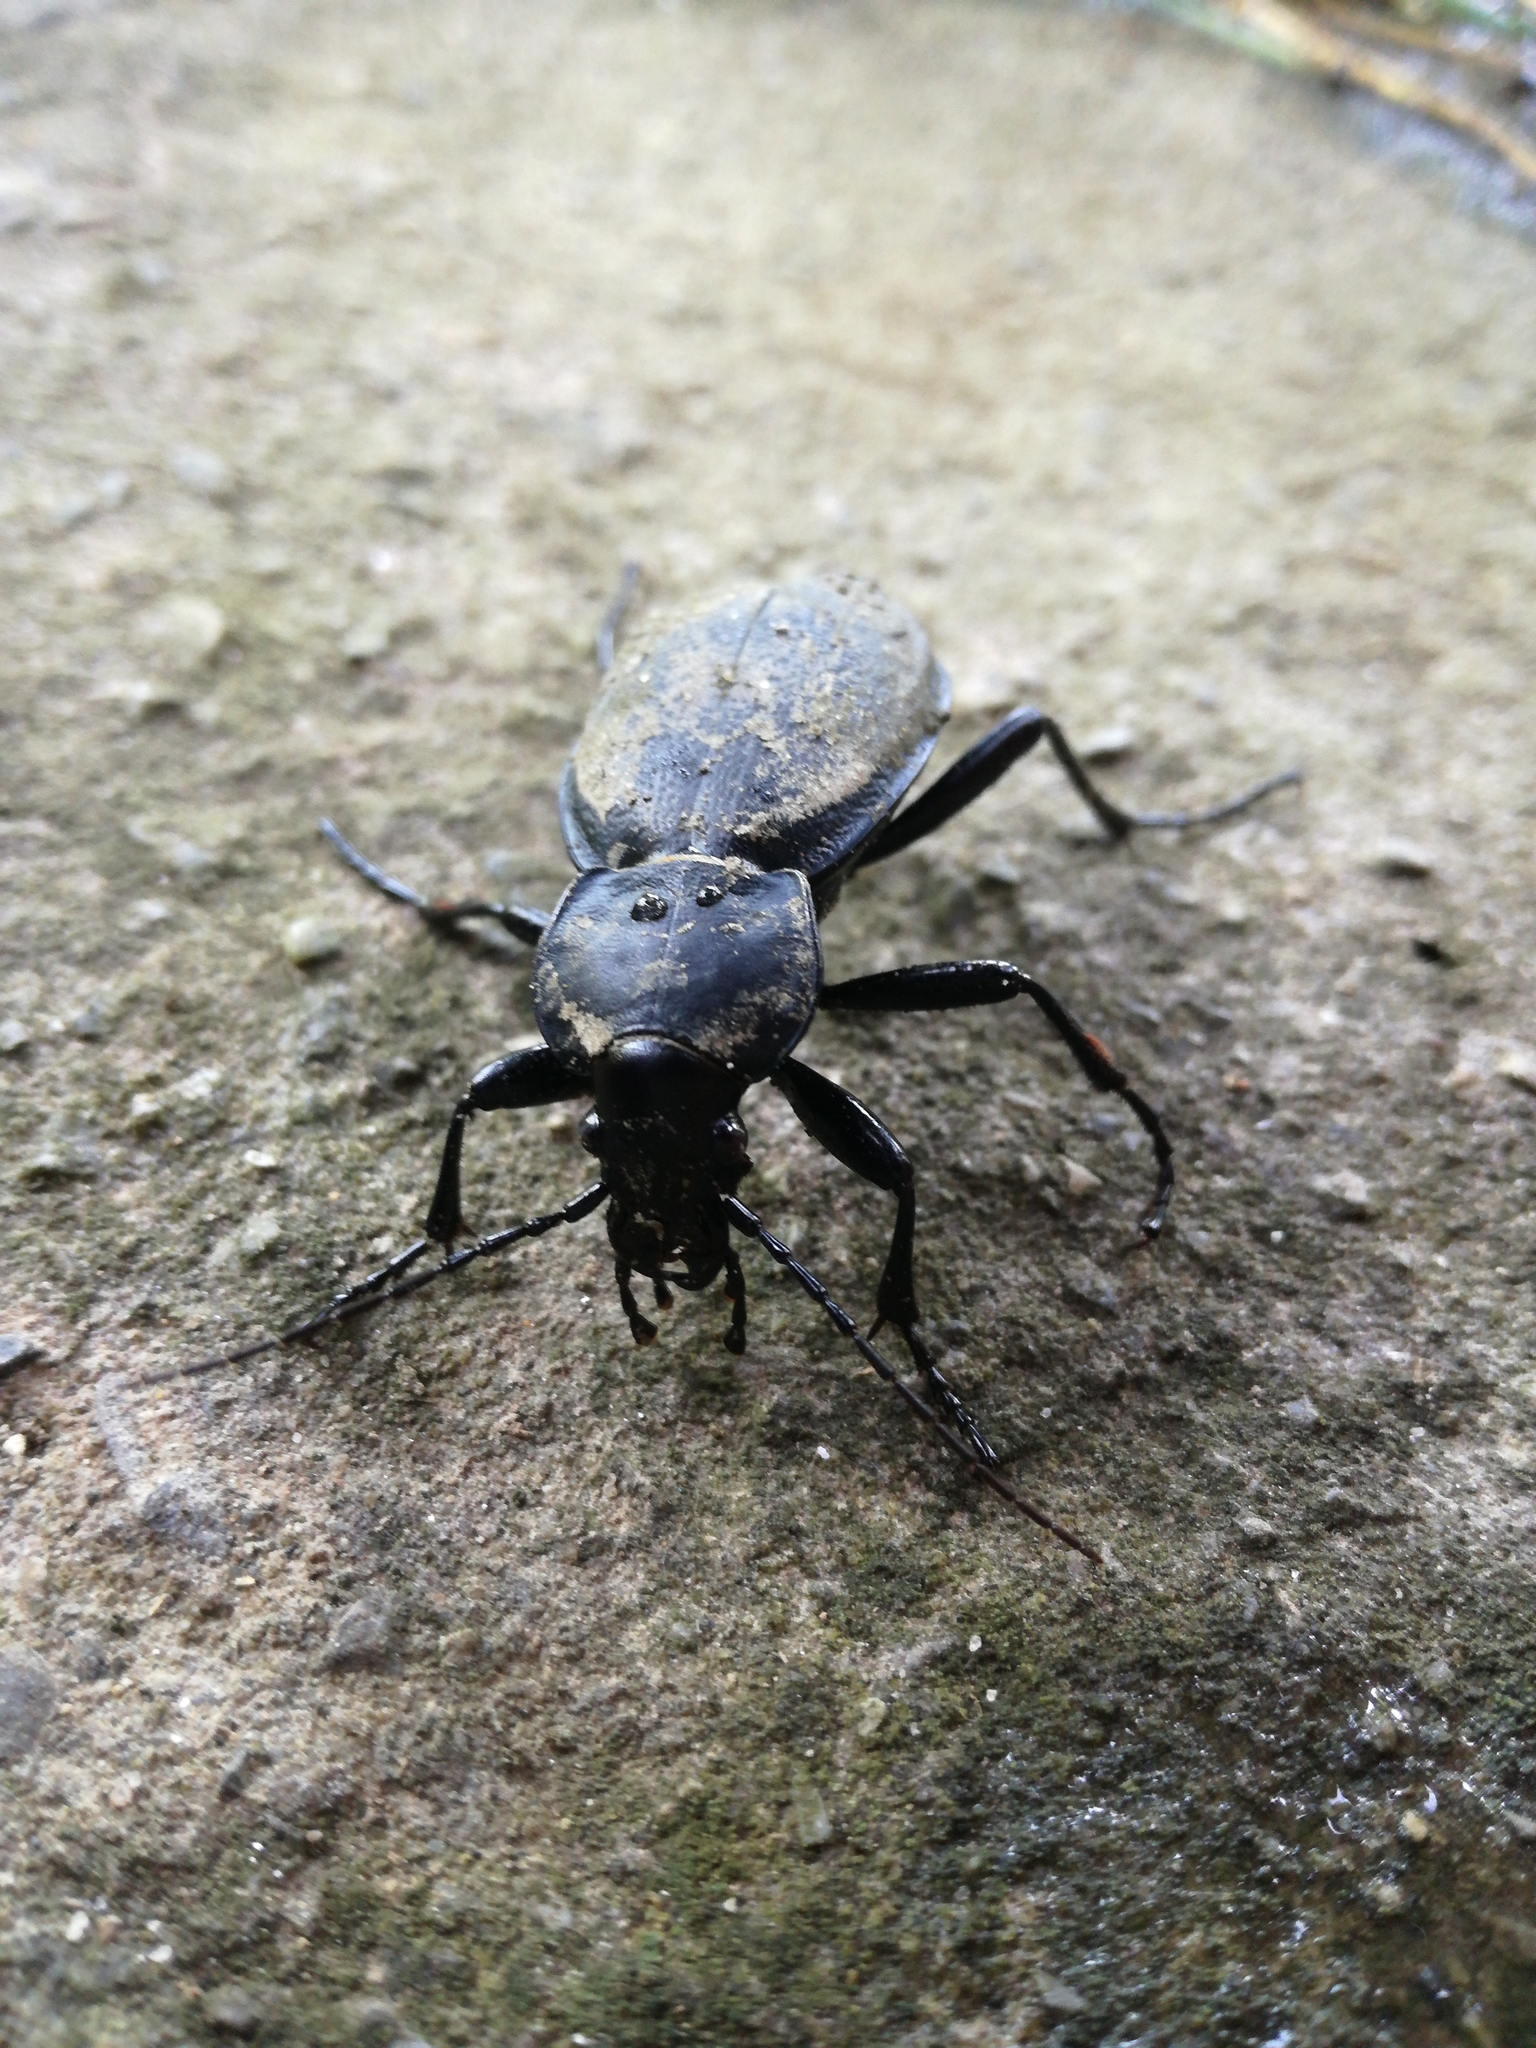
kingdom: Animalia
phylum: Arthropoda
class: Insecta
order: Coleoptera
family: Carabidae
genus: Carabus
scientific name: Carabus coriaceus
